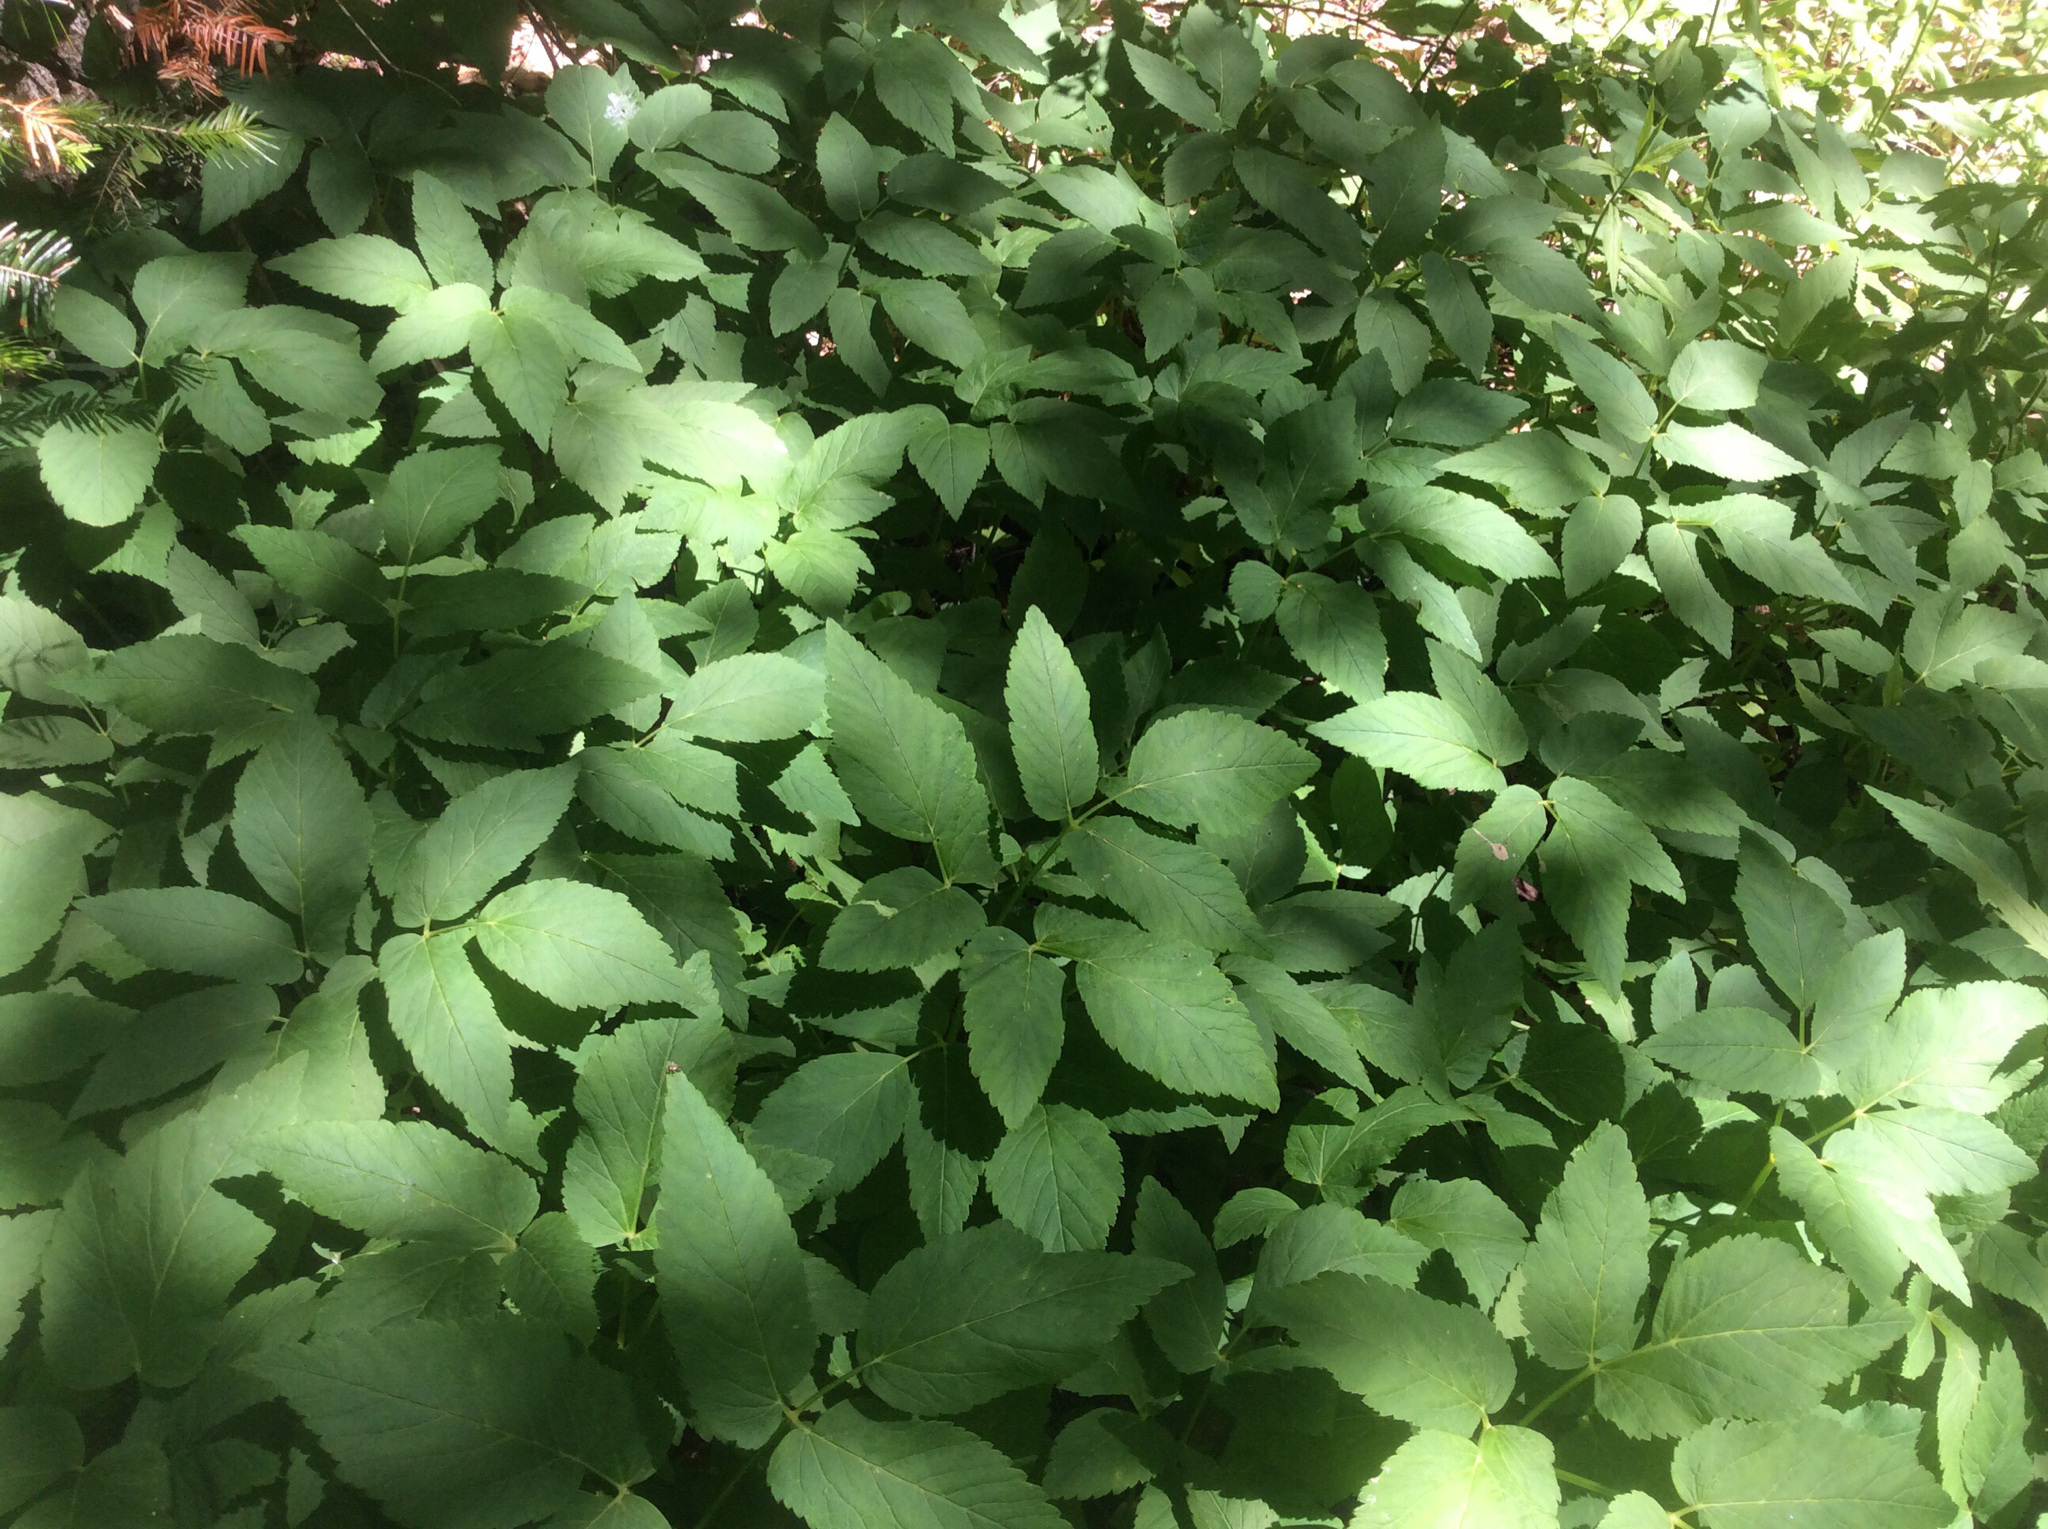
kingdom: Plantae
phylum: Tracheophyta
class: Magnoliopsida
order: Apiales
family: Apiaceae
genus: Aegopodium
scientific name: Aegopodium podagraria
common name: Ground-elder
